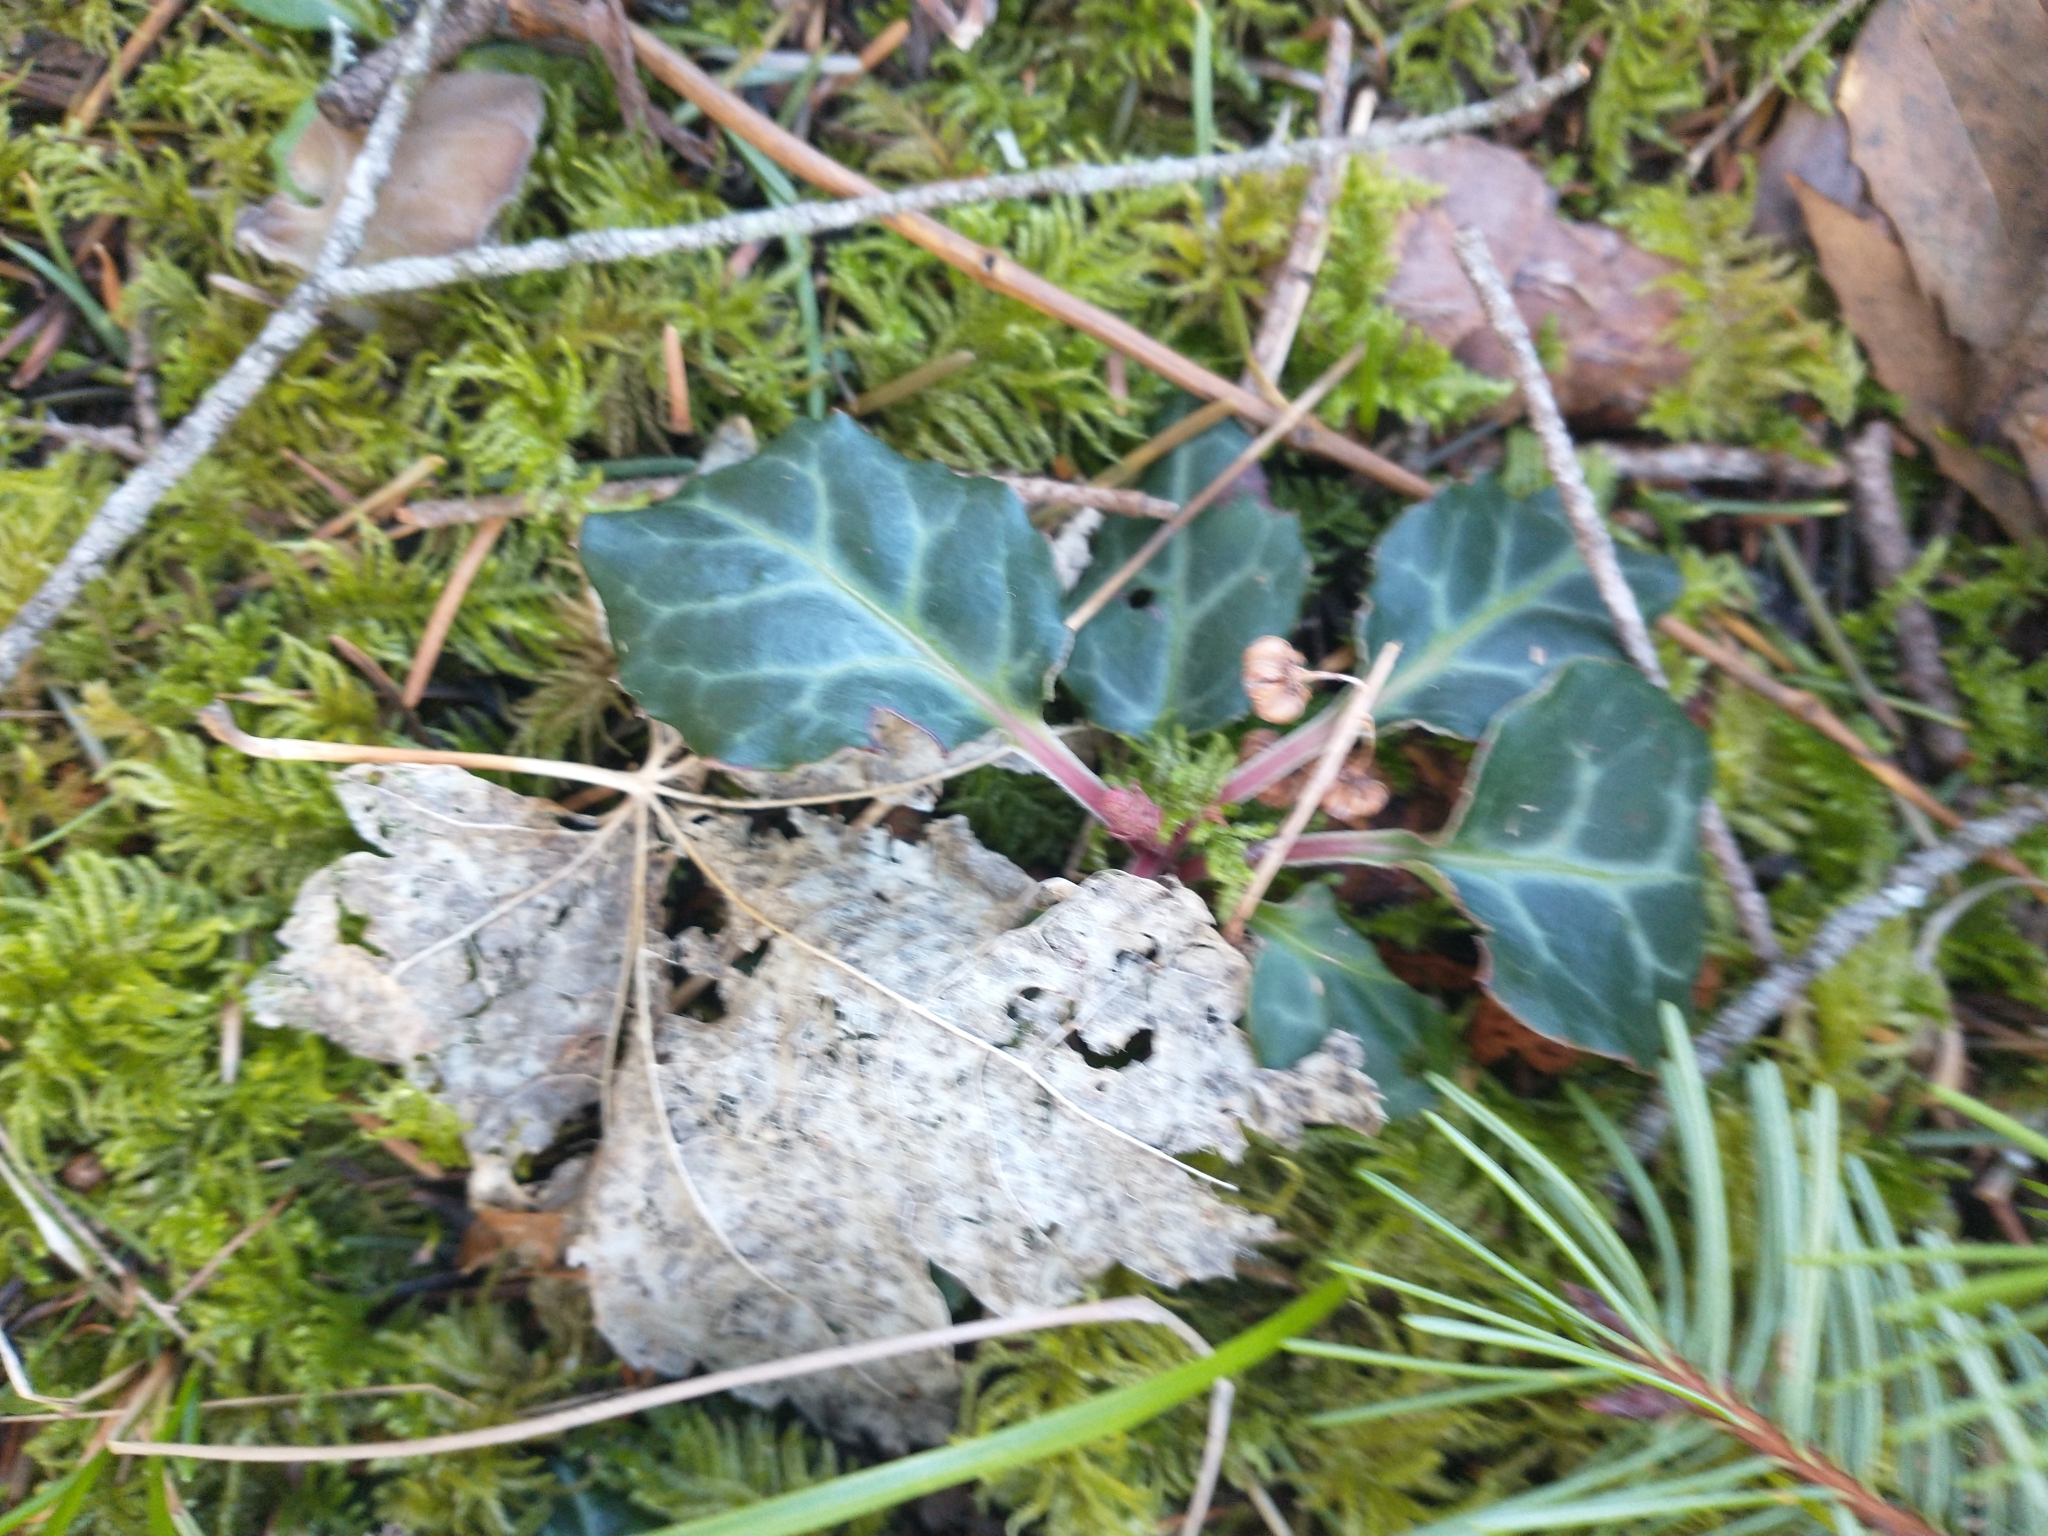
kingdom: Plantae
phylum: Tracheophyta
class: Magnoliopsida
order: Ericales
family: Ericaceae
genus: Pyrola
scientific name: Pyrola picta
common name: White-vein wintergreen
